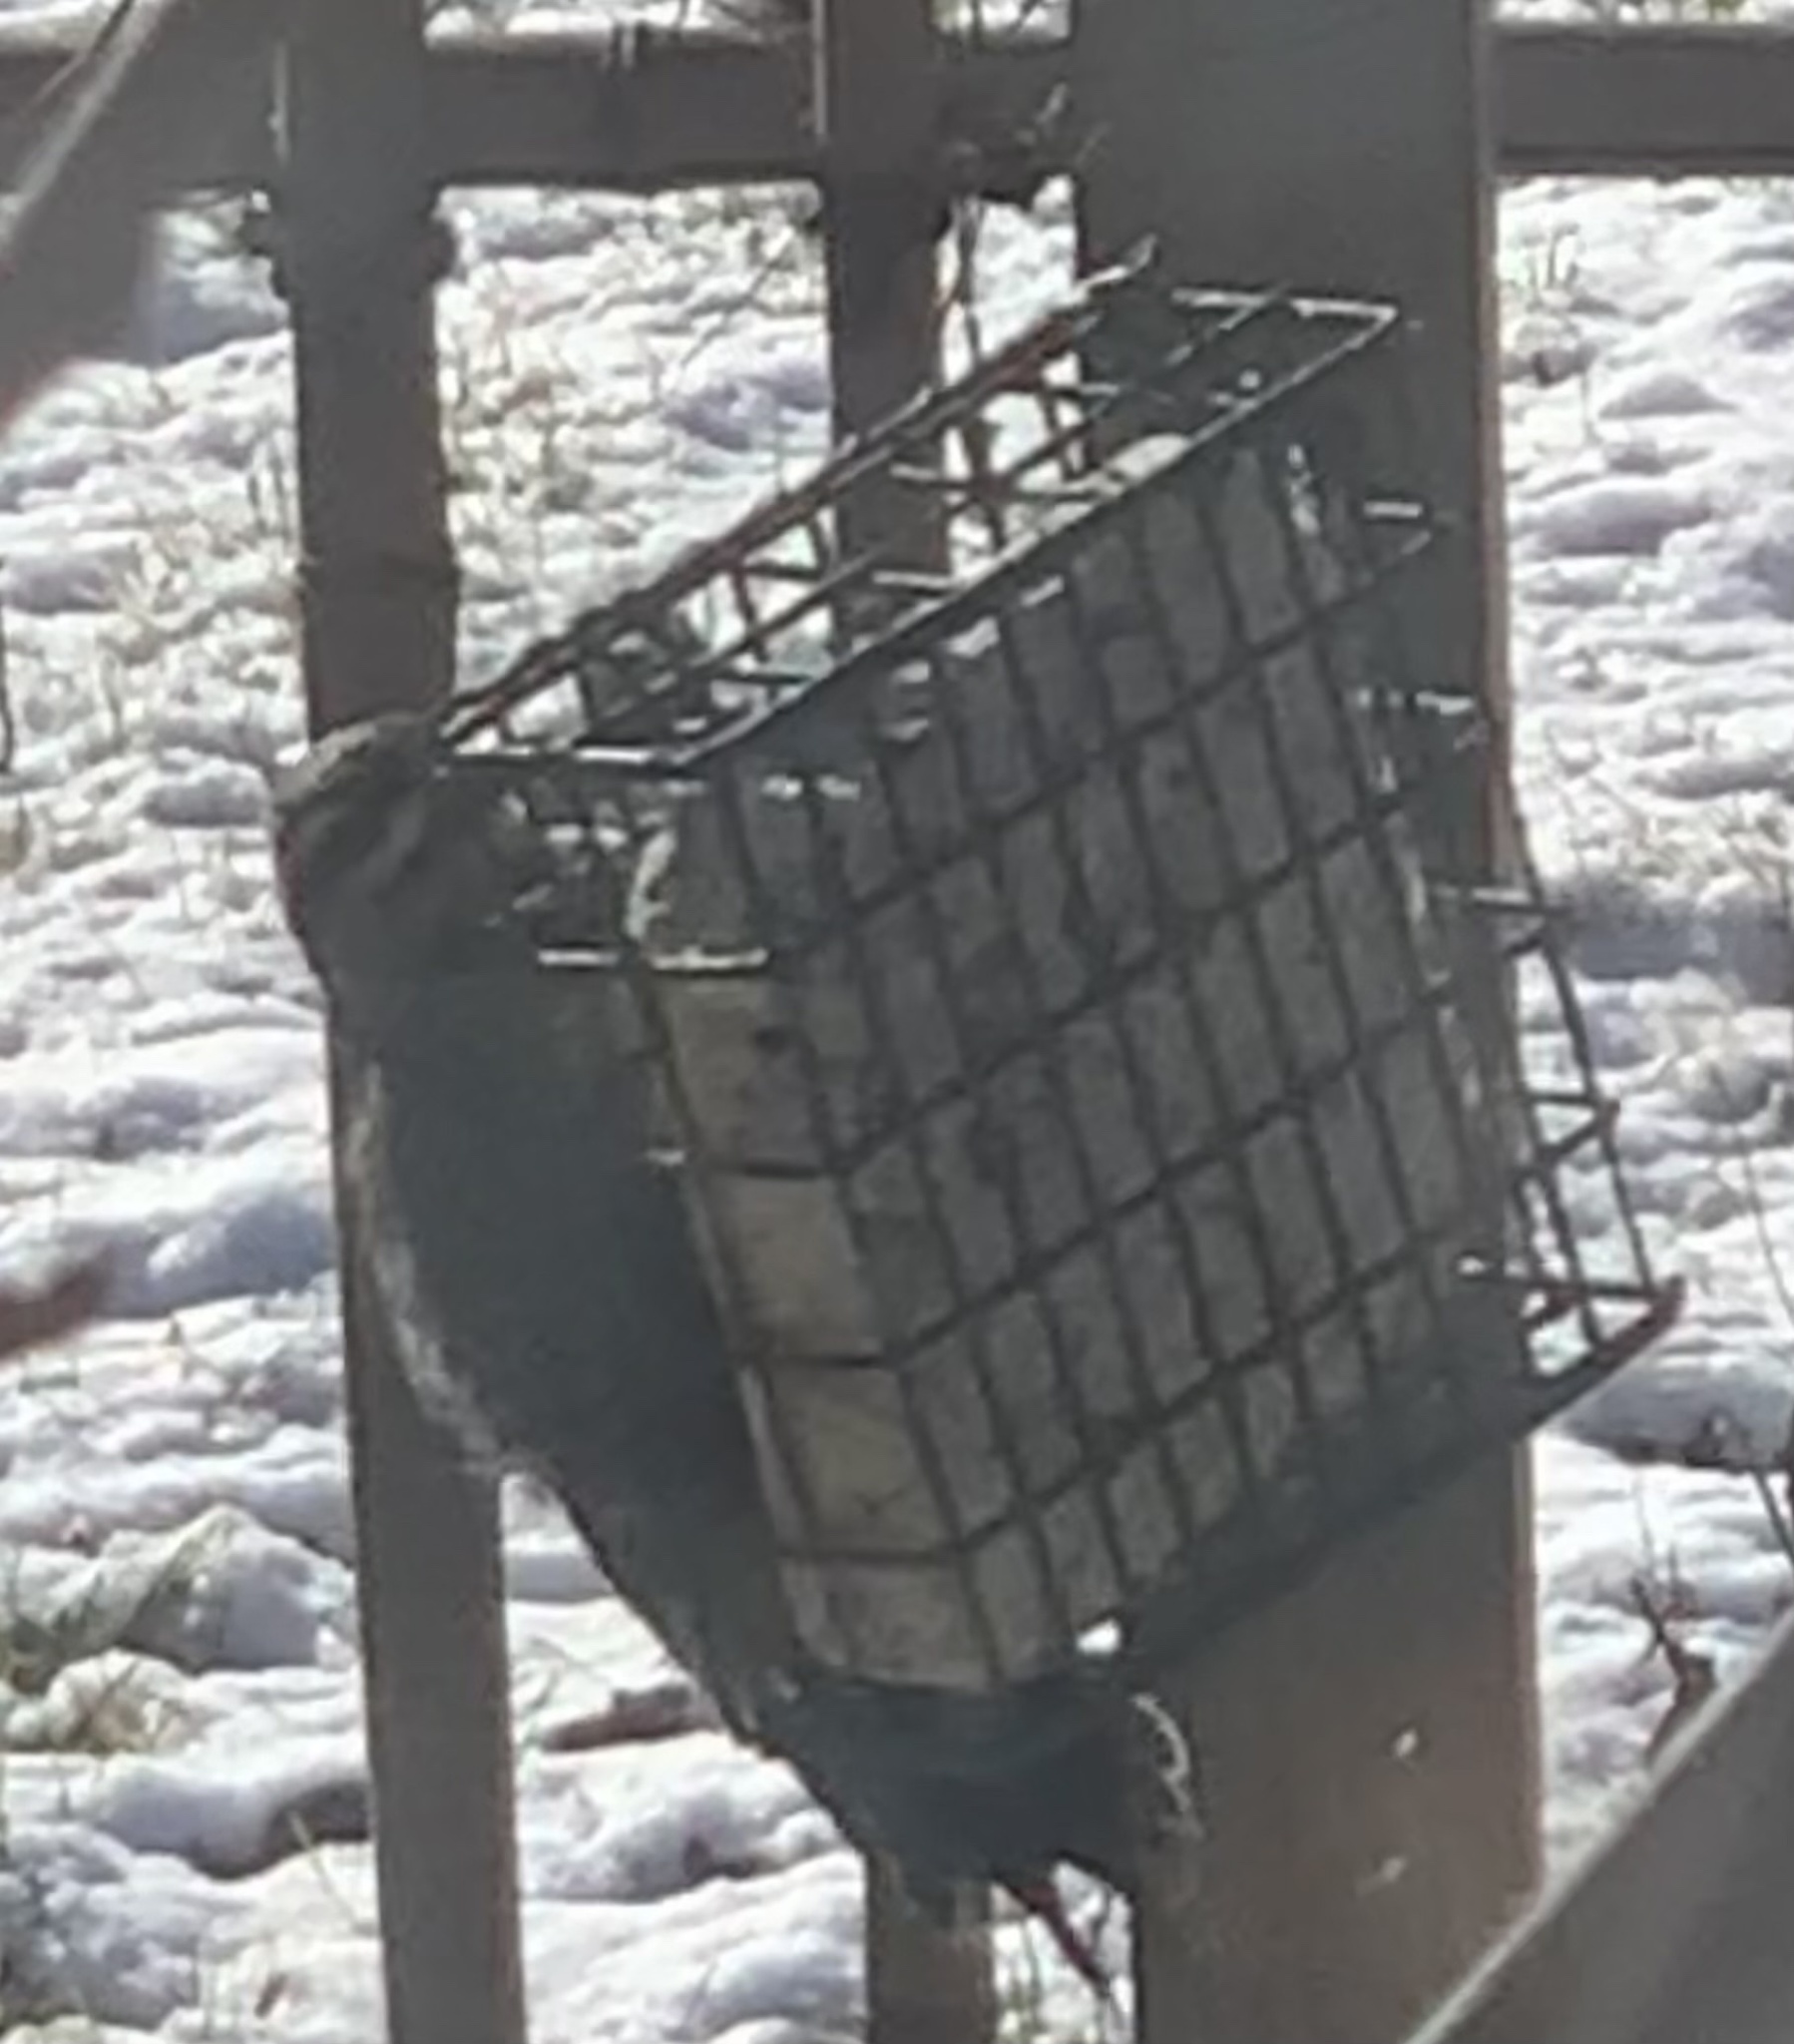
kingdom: Animalia
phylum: Chordata
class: Aves
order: Piciformes
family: Picidae
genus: Sphyrapicus
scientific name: Sphyrapicus varius
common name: Yellow-bellied sapsucker
